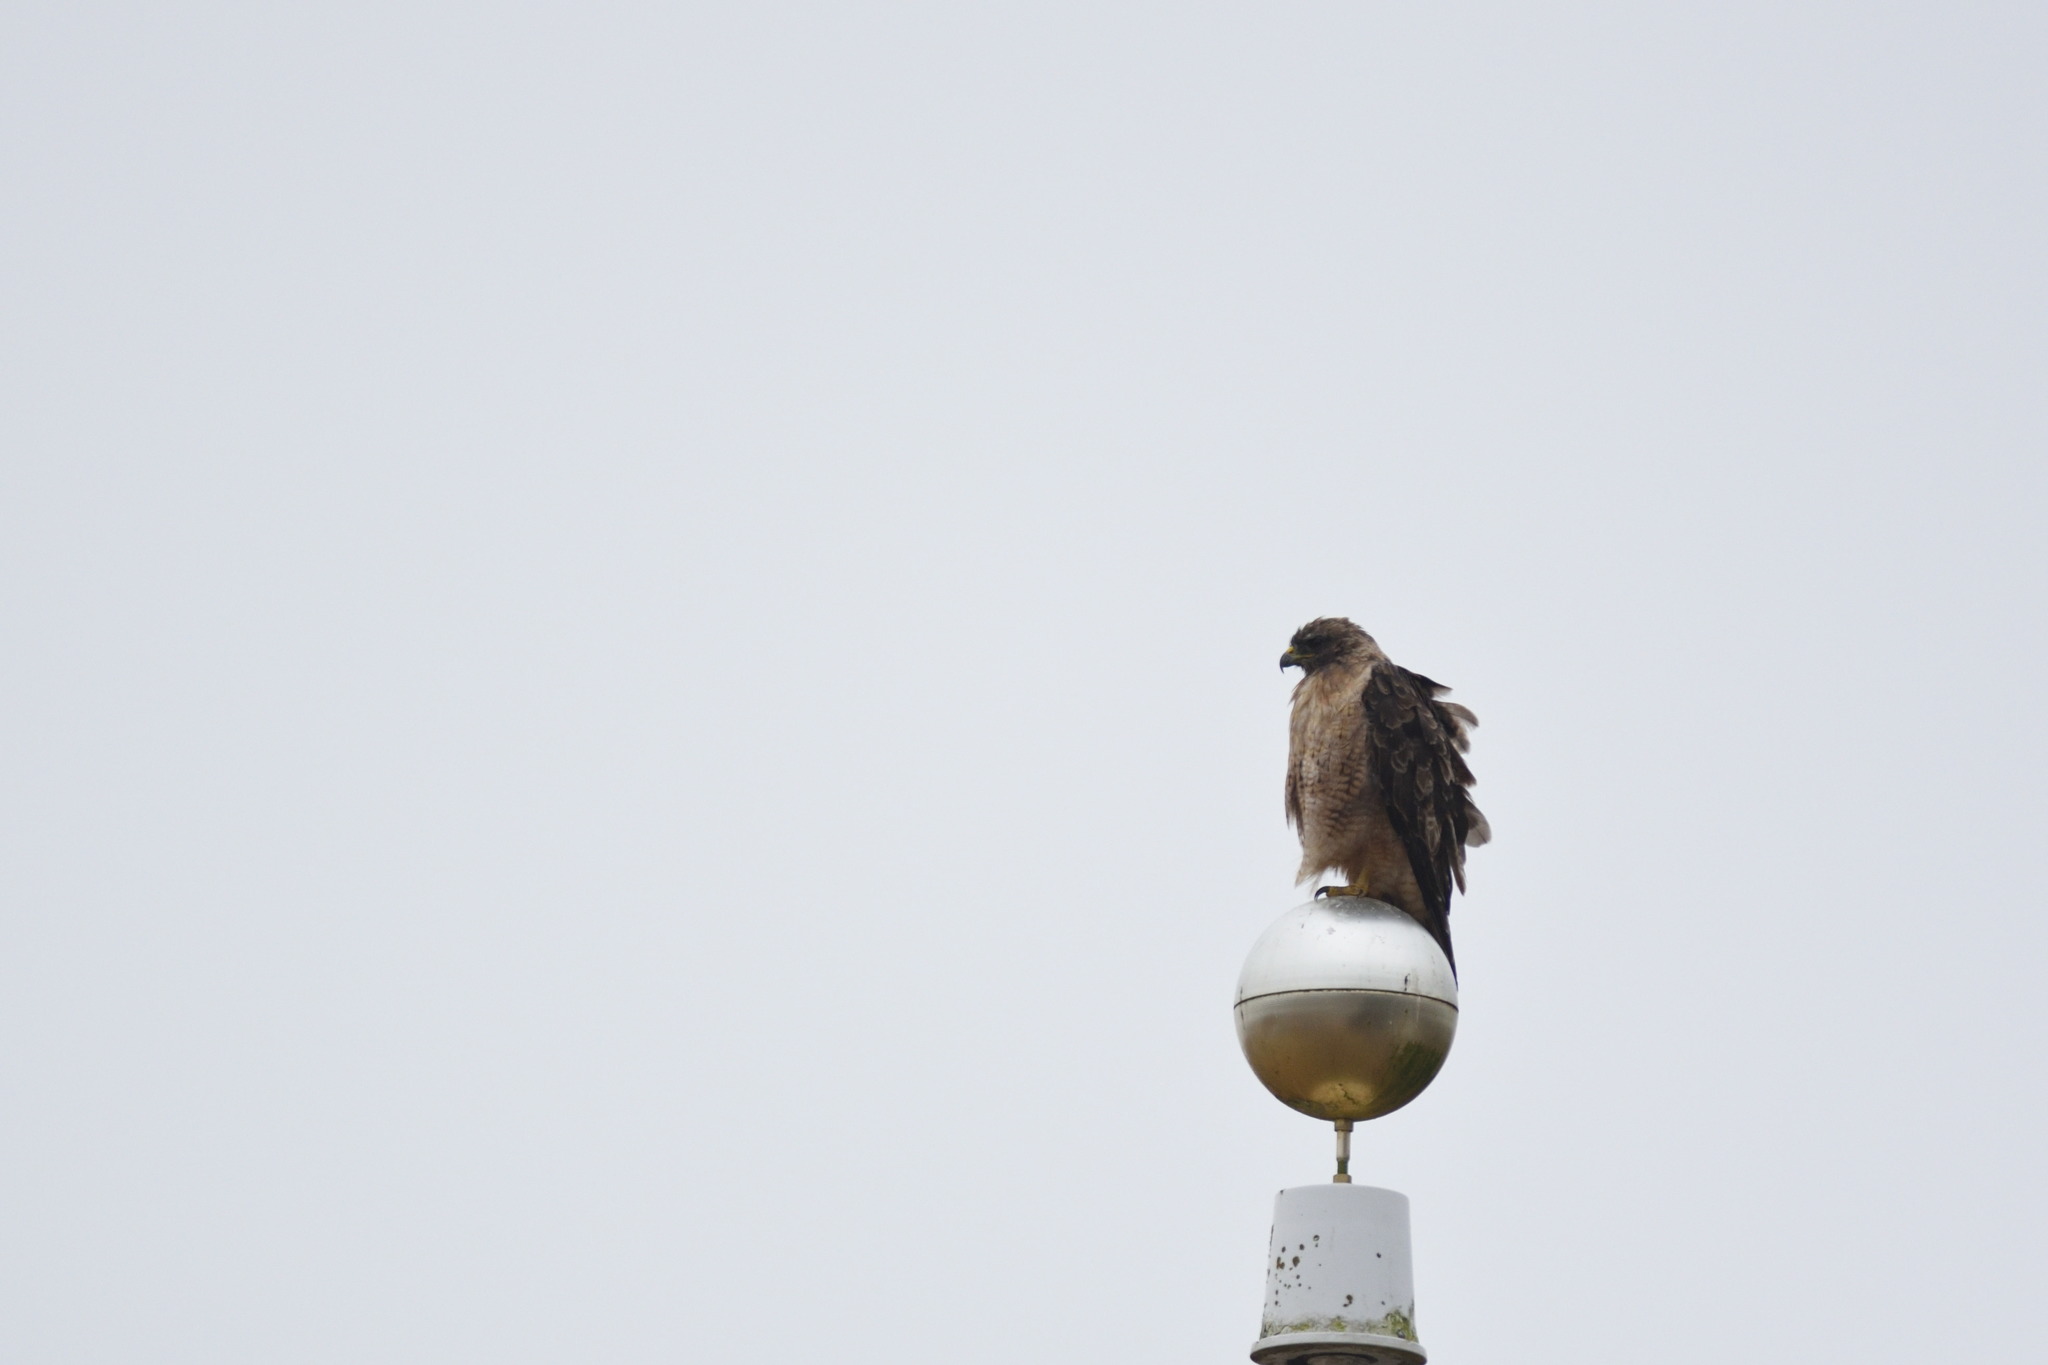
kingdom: Animalia
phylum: Chordata
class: Aves
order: Accipitriformes
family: Accipitridae
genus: Buteo
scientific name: Buteo jamaicensis
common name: Red-tailed hawk
